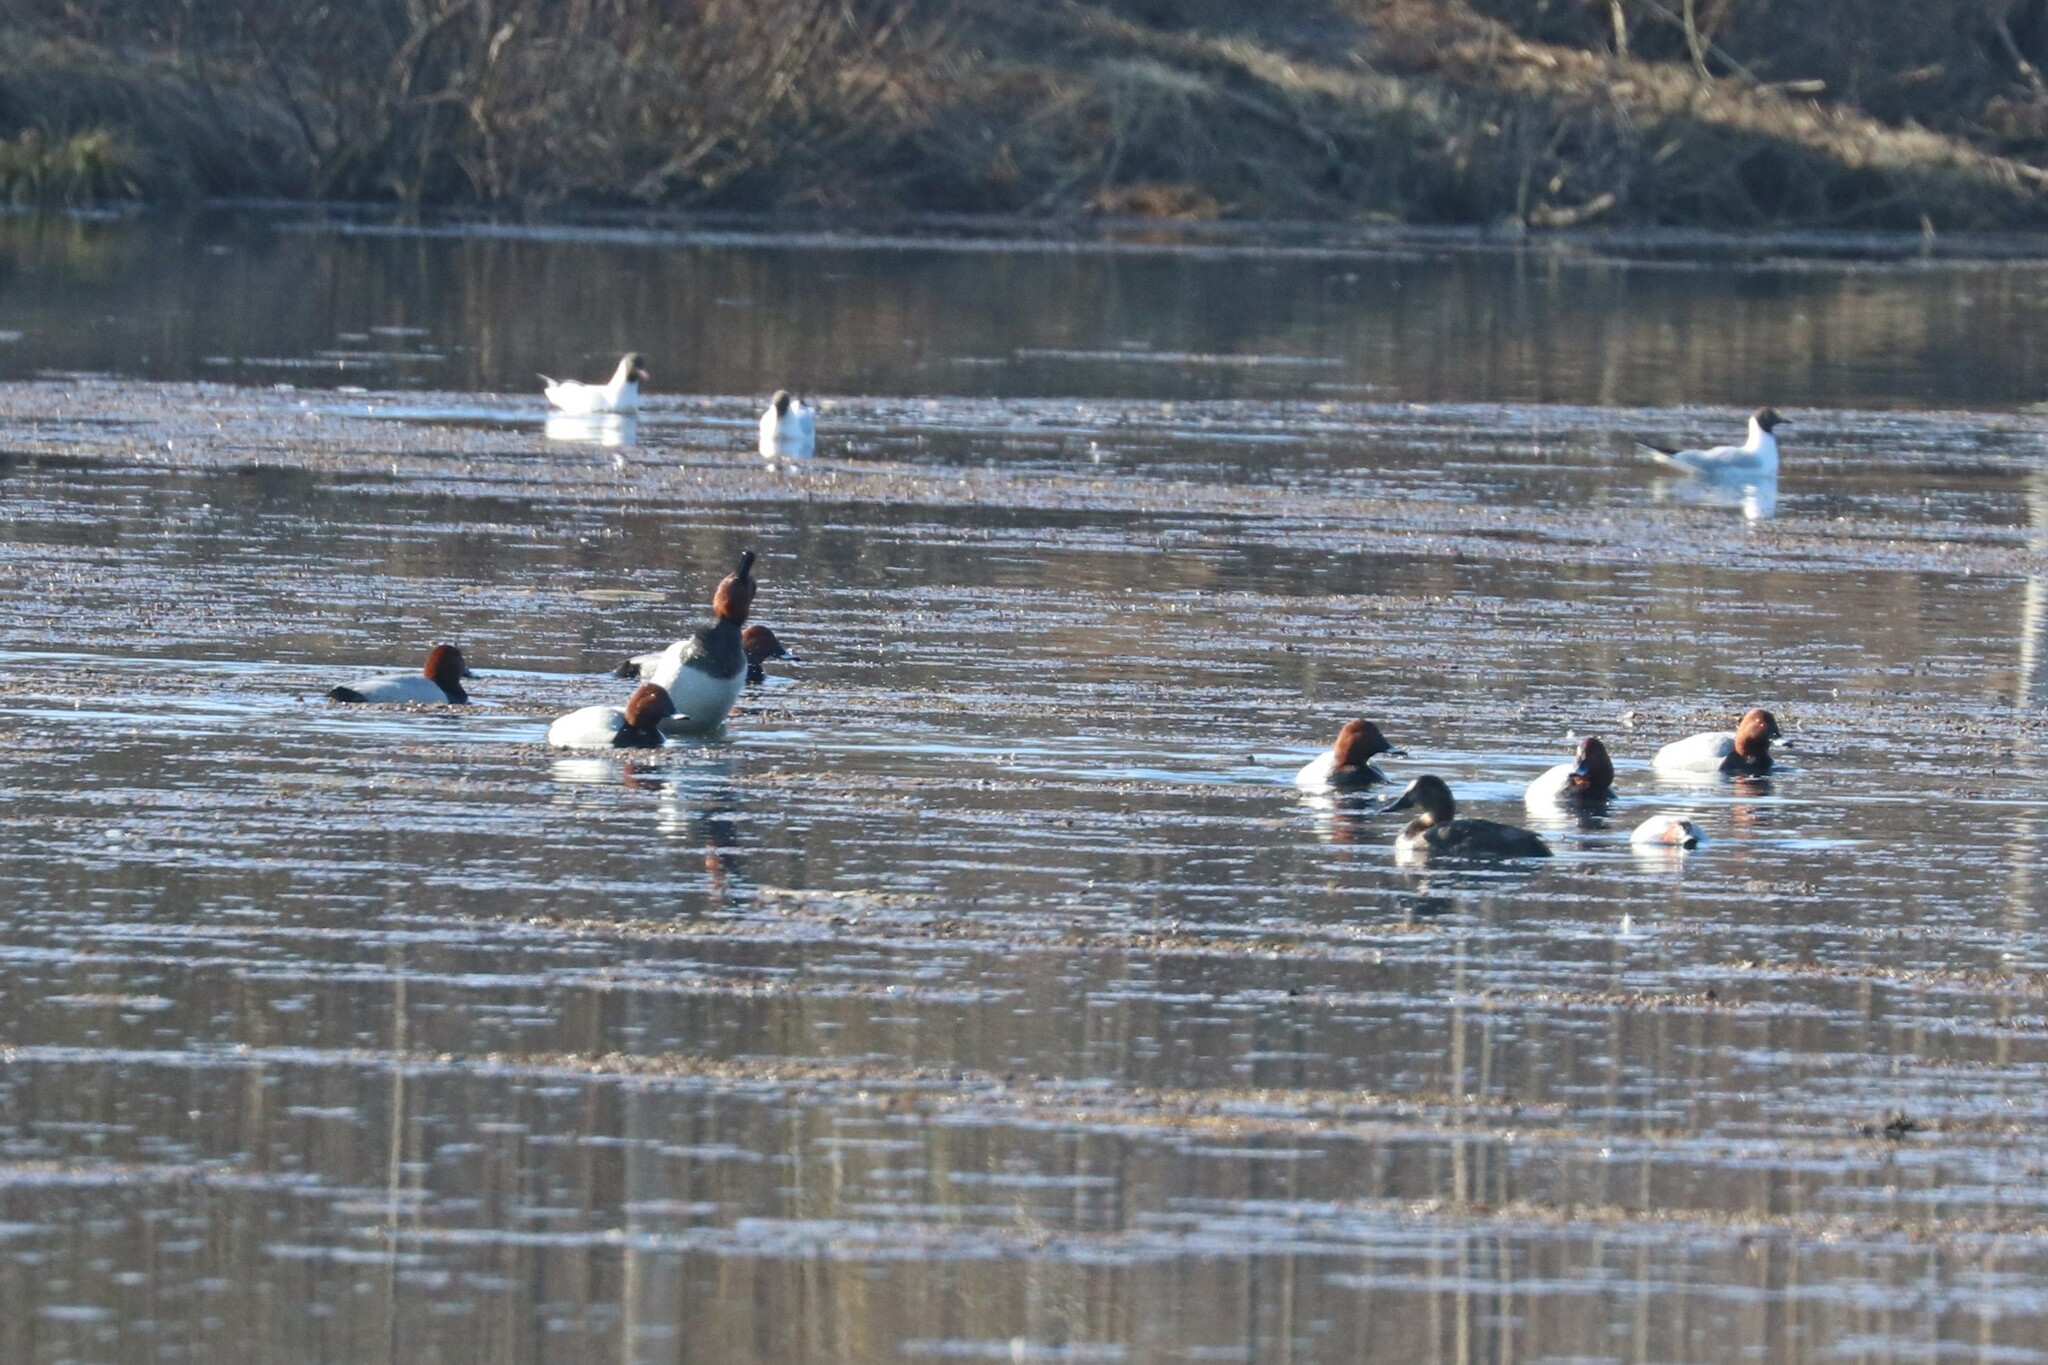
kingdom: Animalia
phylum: Chordata
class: Aves
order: Anseriformes
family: Anatidae
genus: Aythya
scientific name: Aythya ferina
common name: Common pochard
